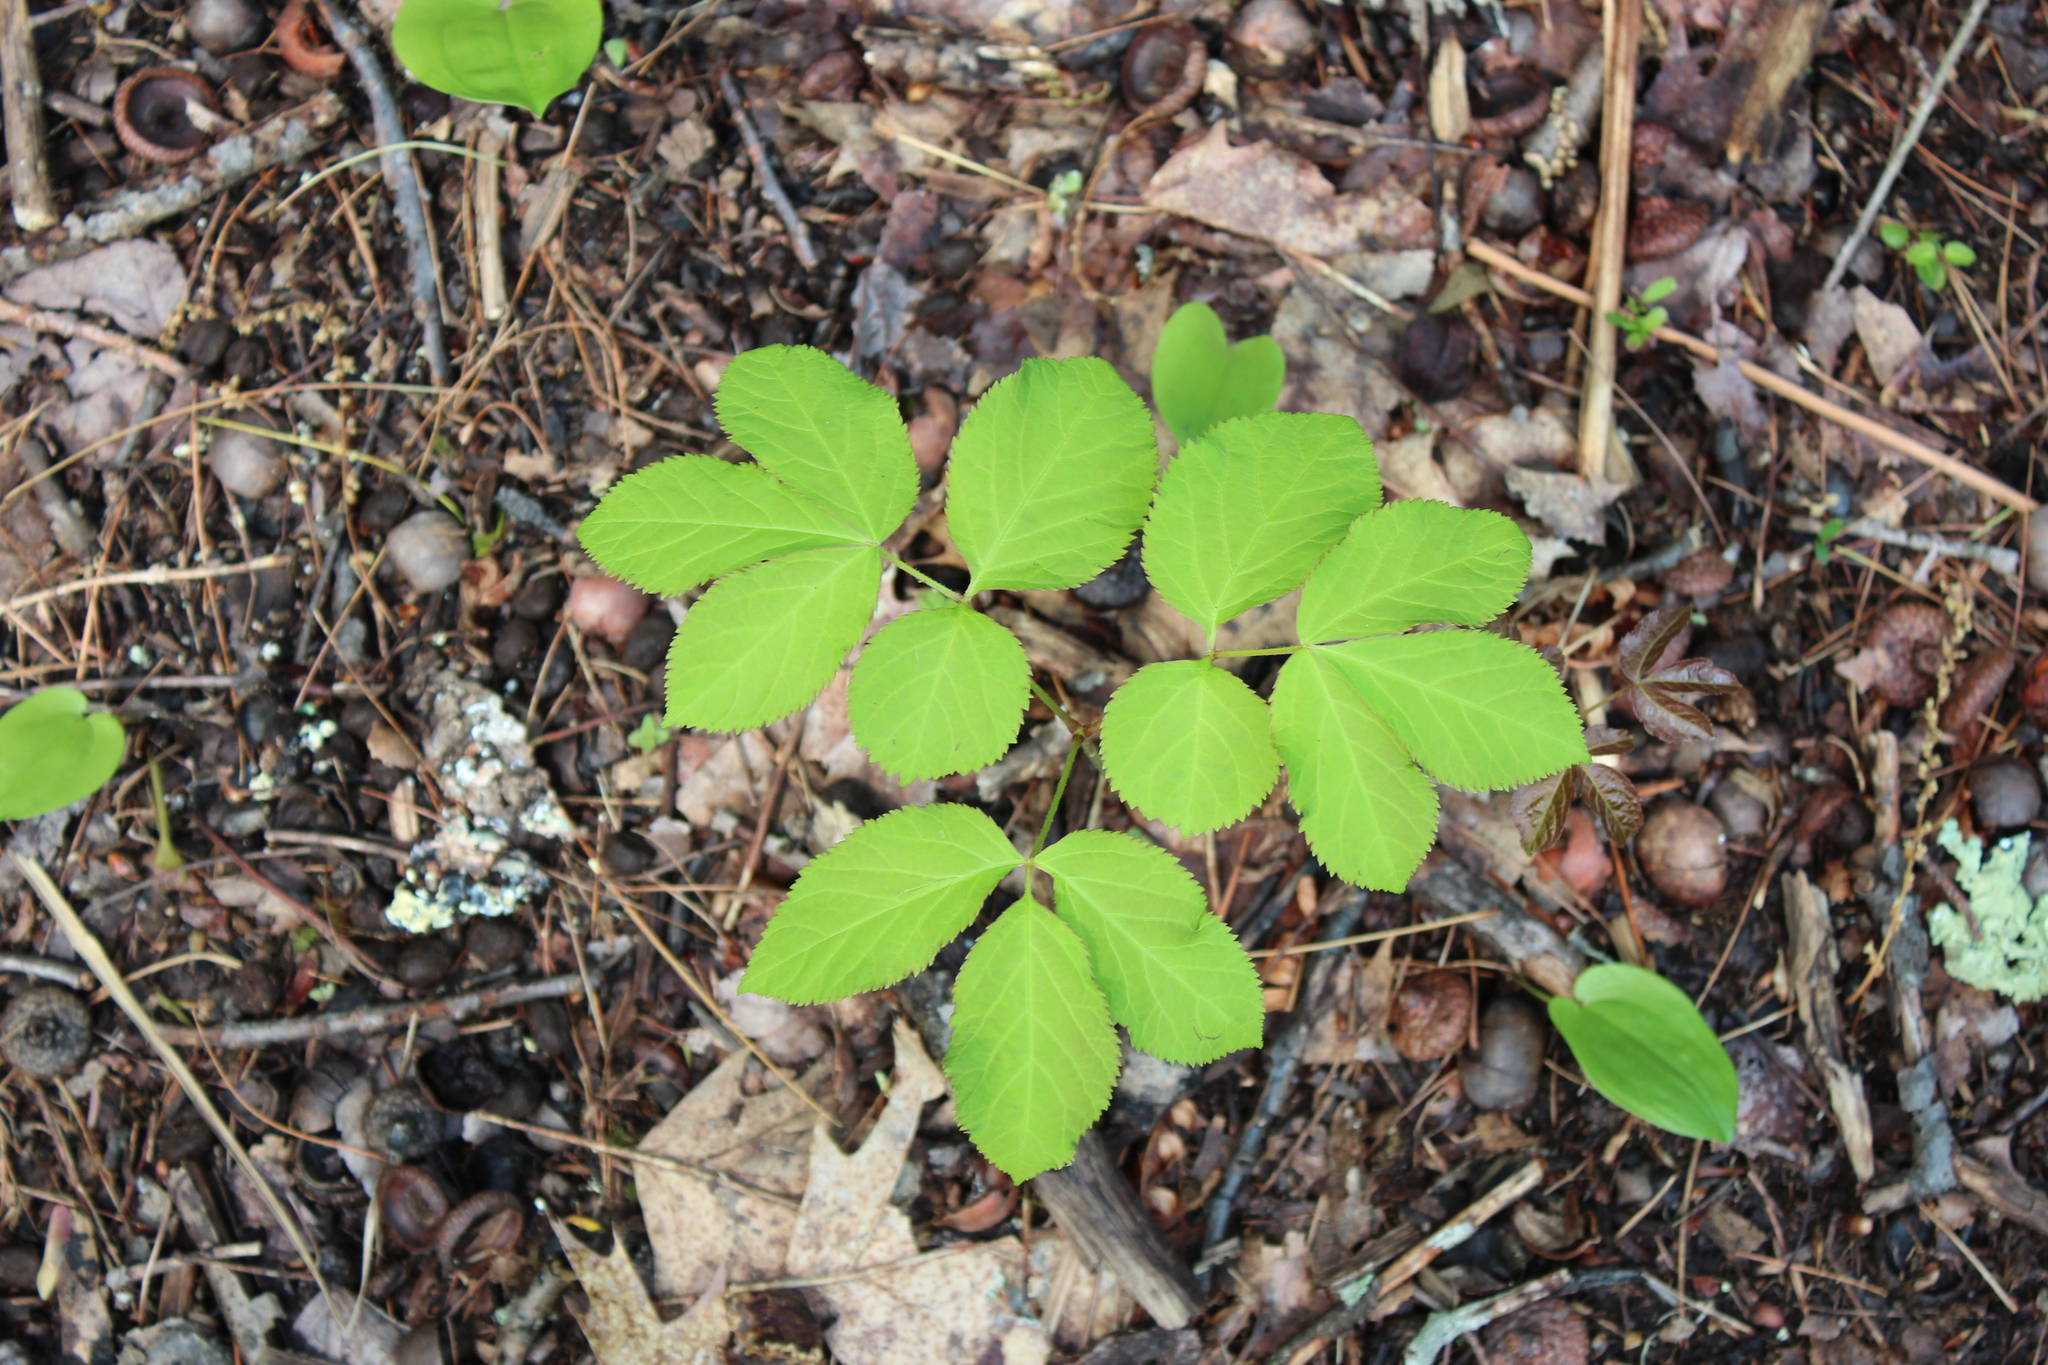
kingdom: Plantae
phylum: Tracheophyta
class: Magnoliopsida
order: Apiales
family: Araliaceae
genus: Aralia
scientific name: Aralia nudicaulis
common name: Wild sarsaparilla
